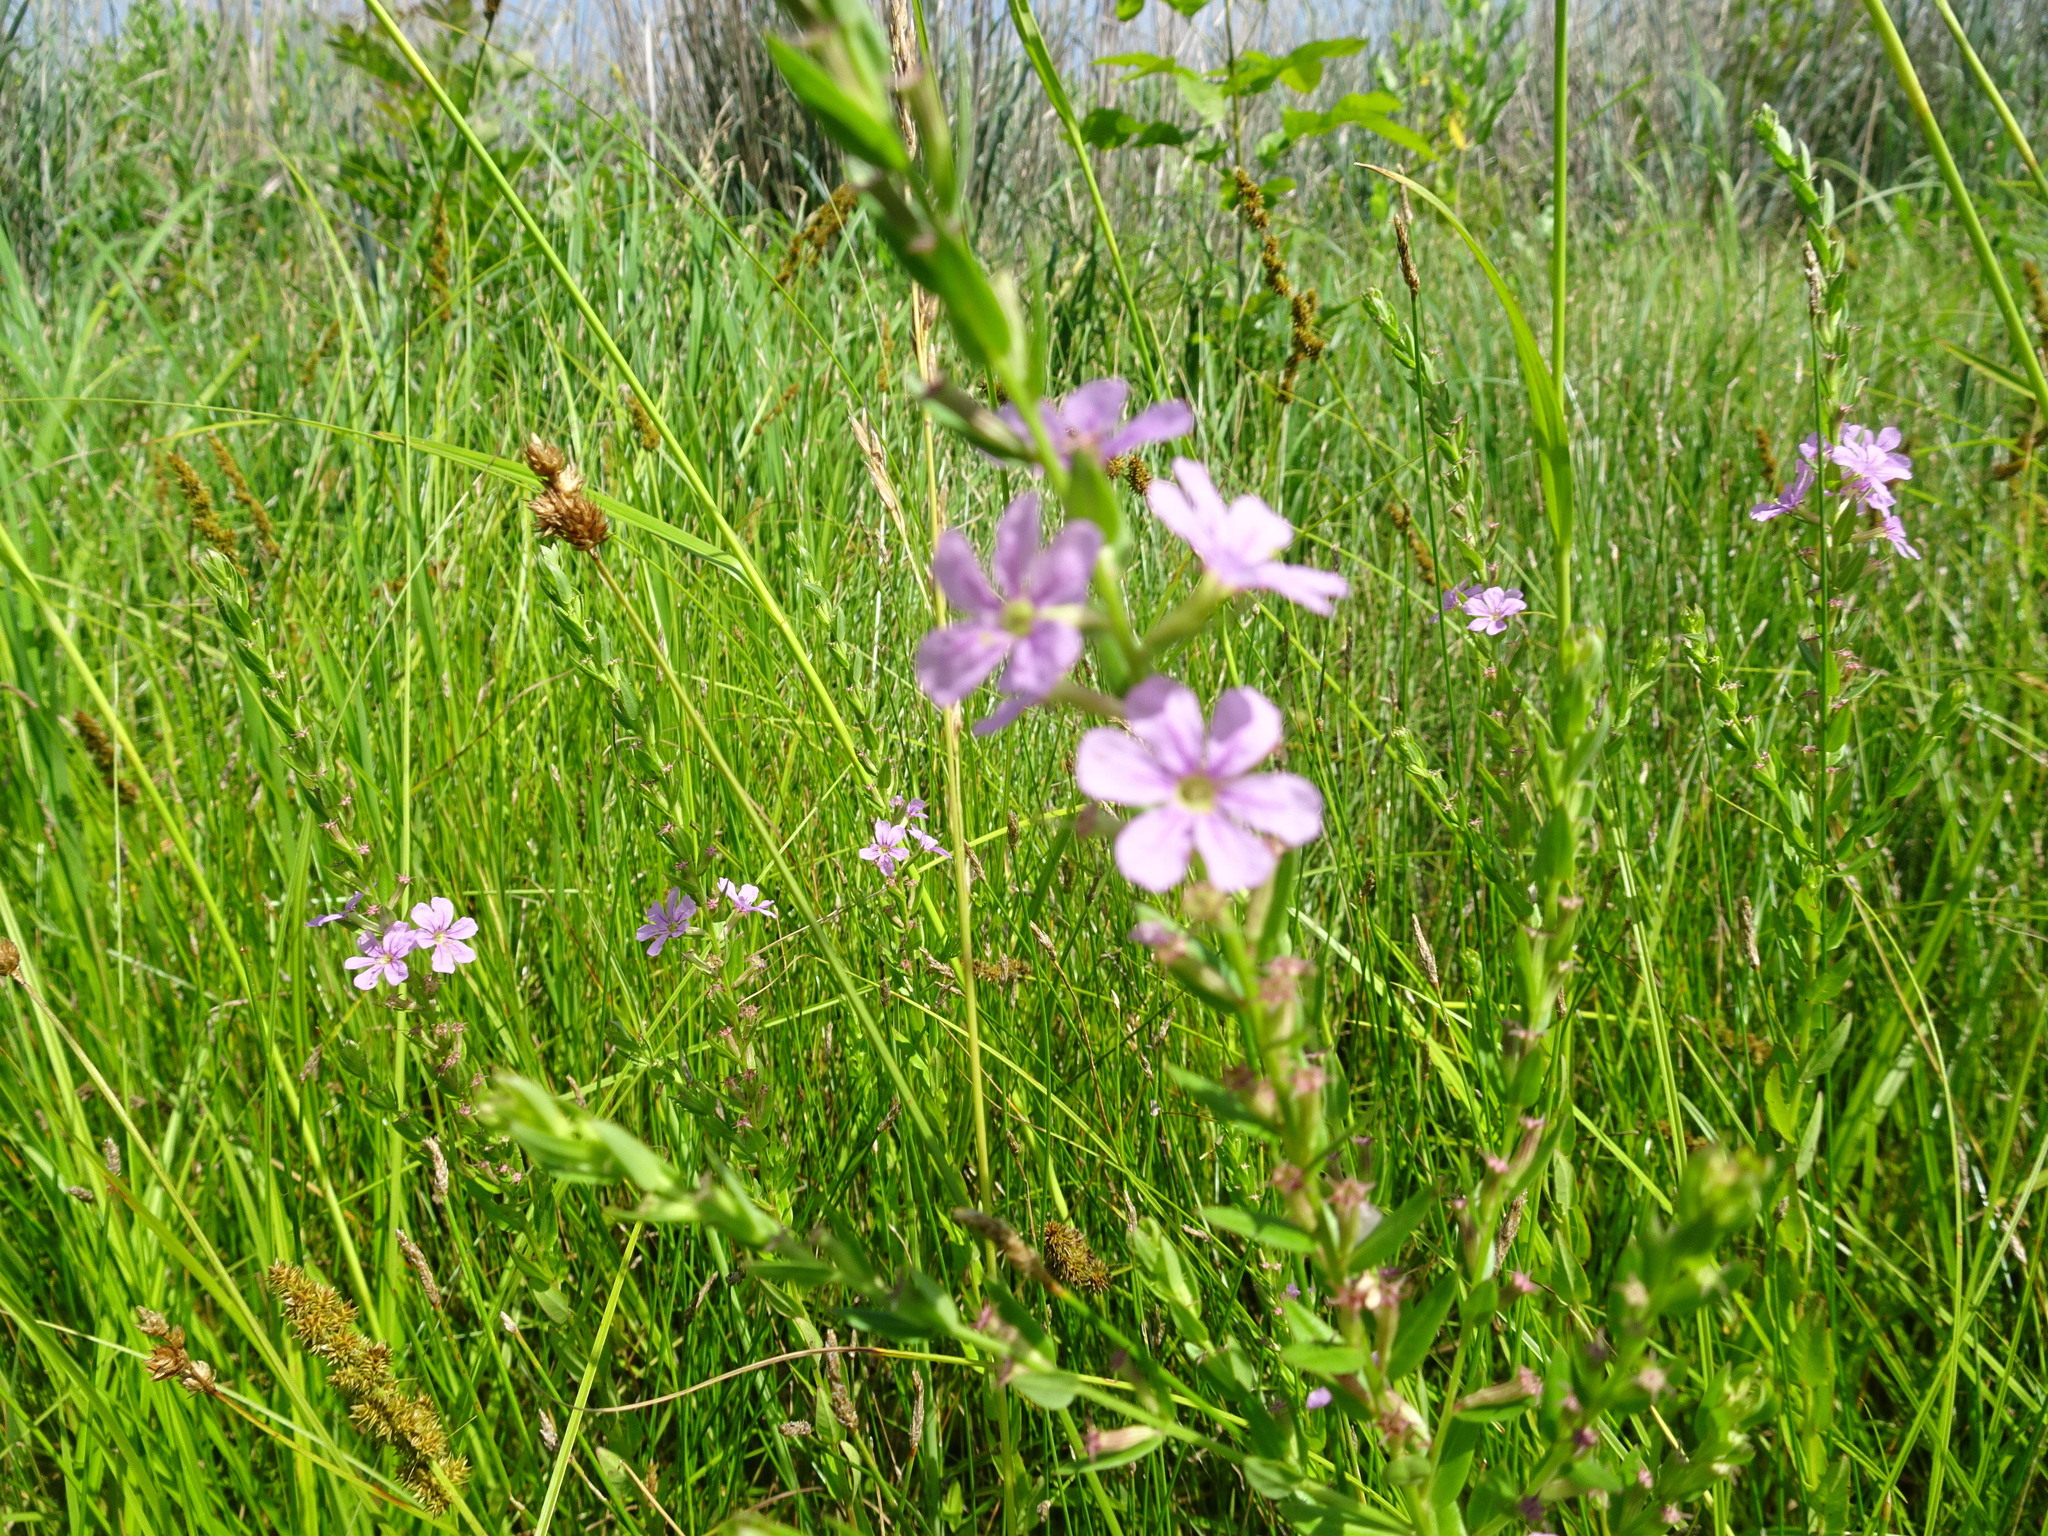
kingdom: Plantae
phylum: Tracheophyta
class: Magnoliopsida
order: Myrtales
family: Lythraceae
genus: Lythrum
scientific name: Lythrum alatum
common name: Winged loosestrife
